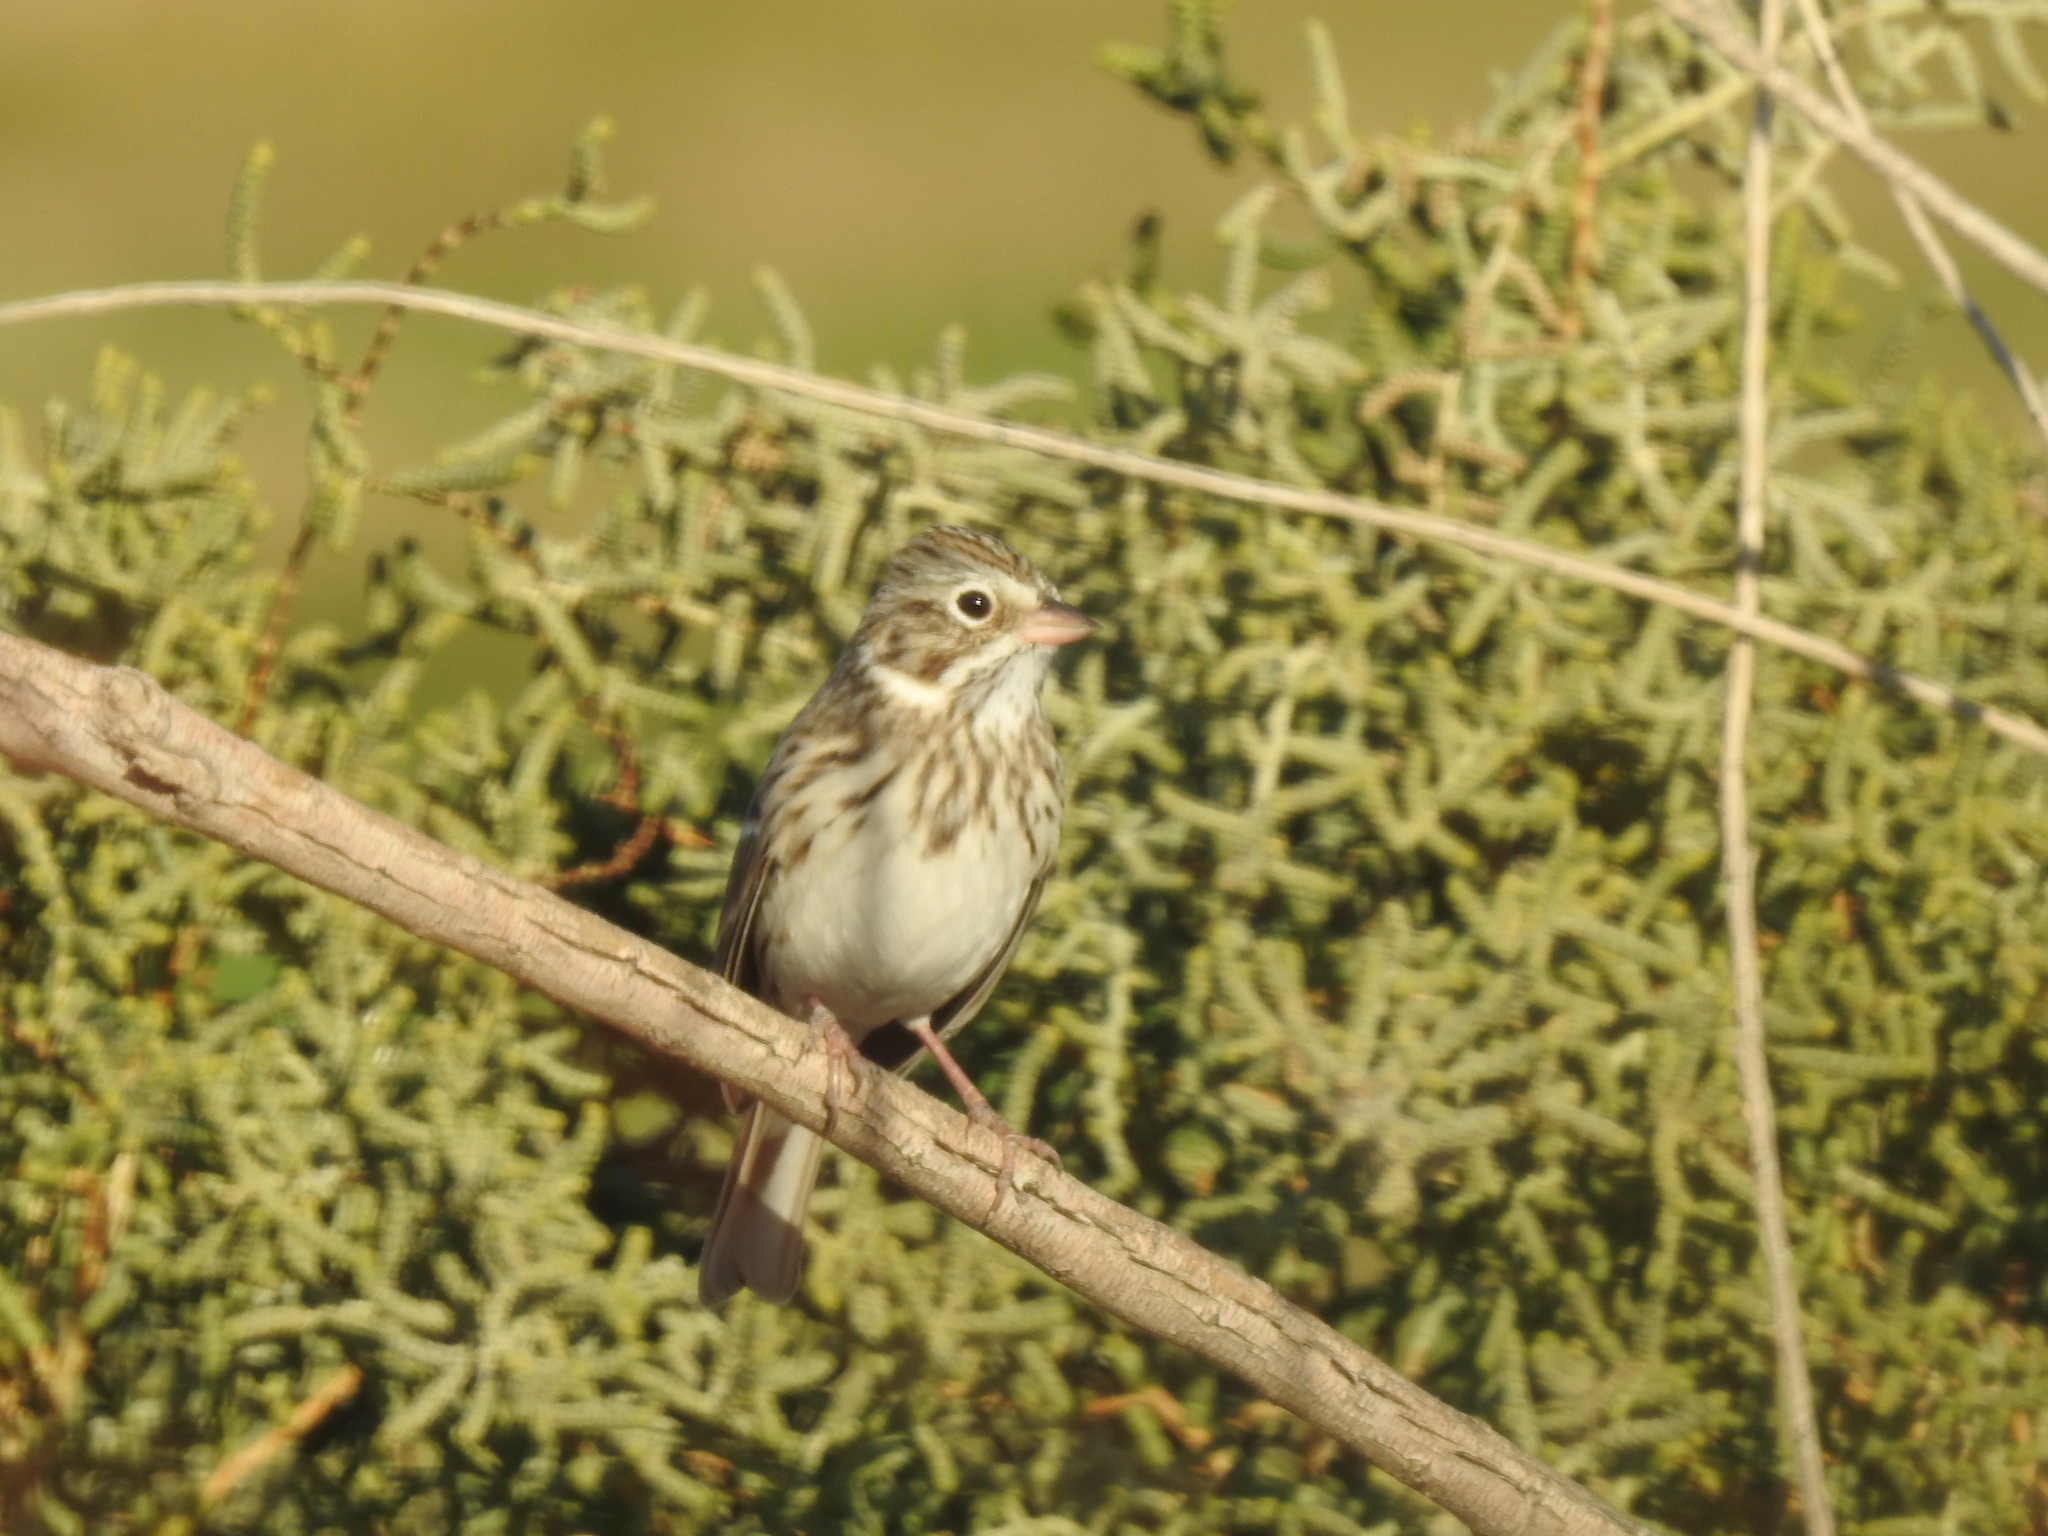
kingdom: Animalia
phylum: Chordata
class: Aves
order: Passeriformes
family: Passerellidae
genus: Pooecetes
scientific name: Pooecetes gramineus
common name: Vesper sparrow
